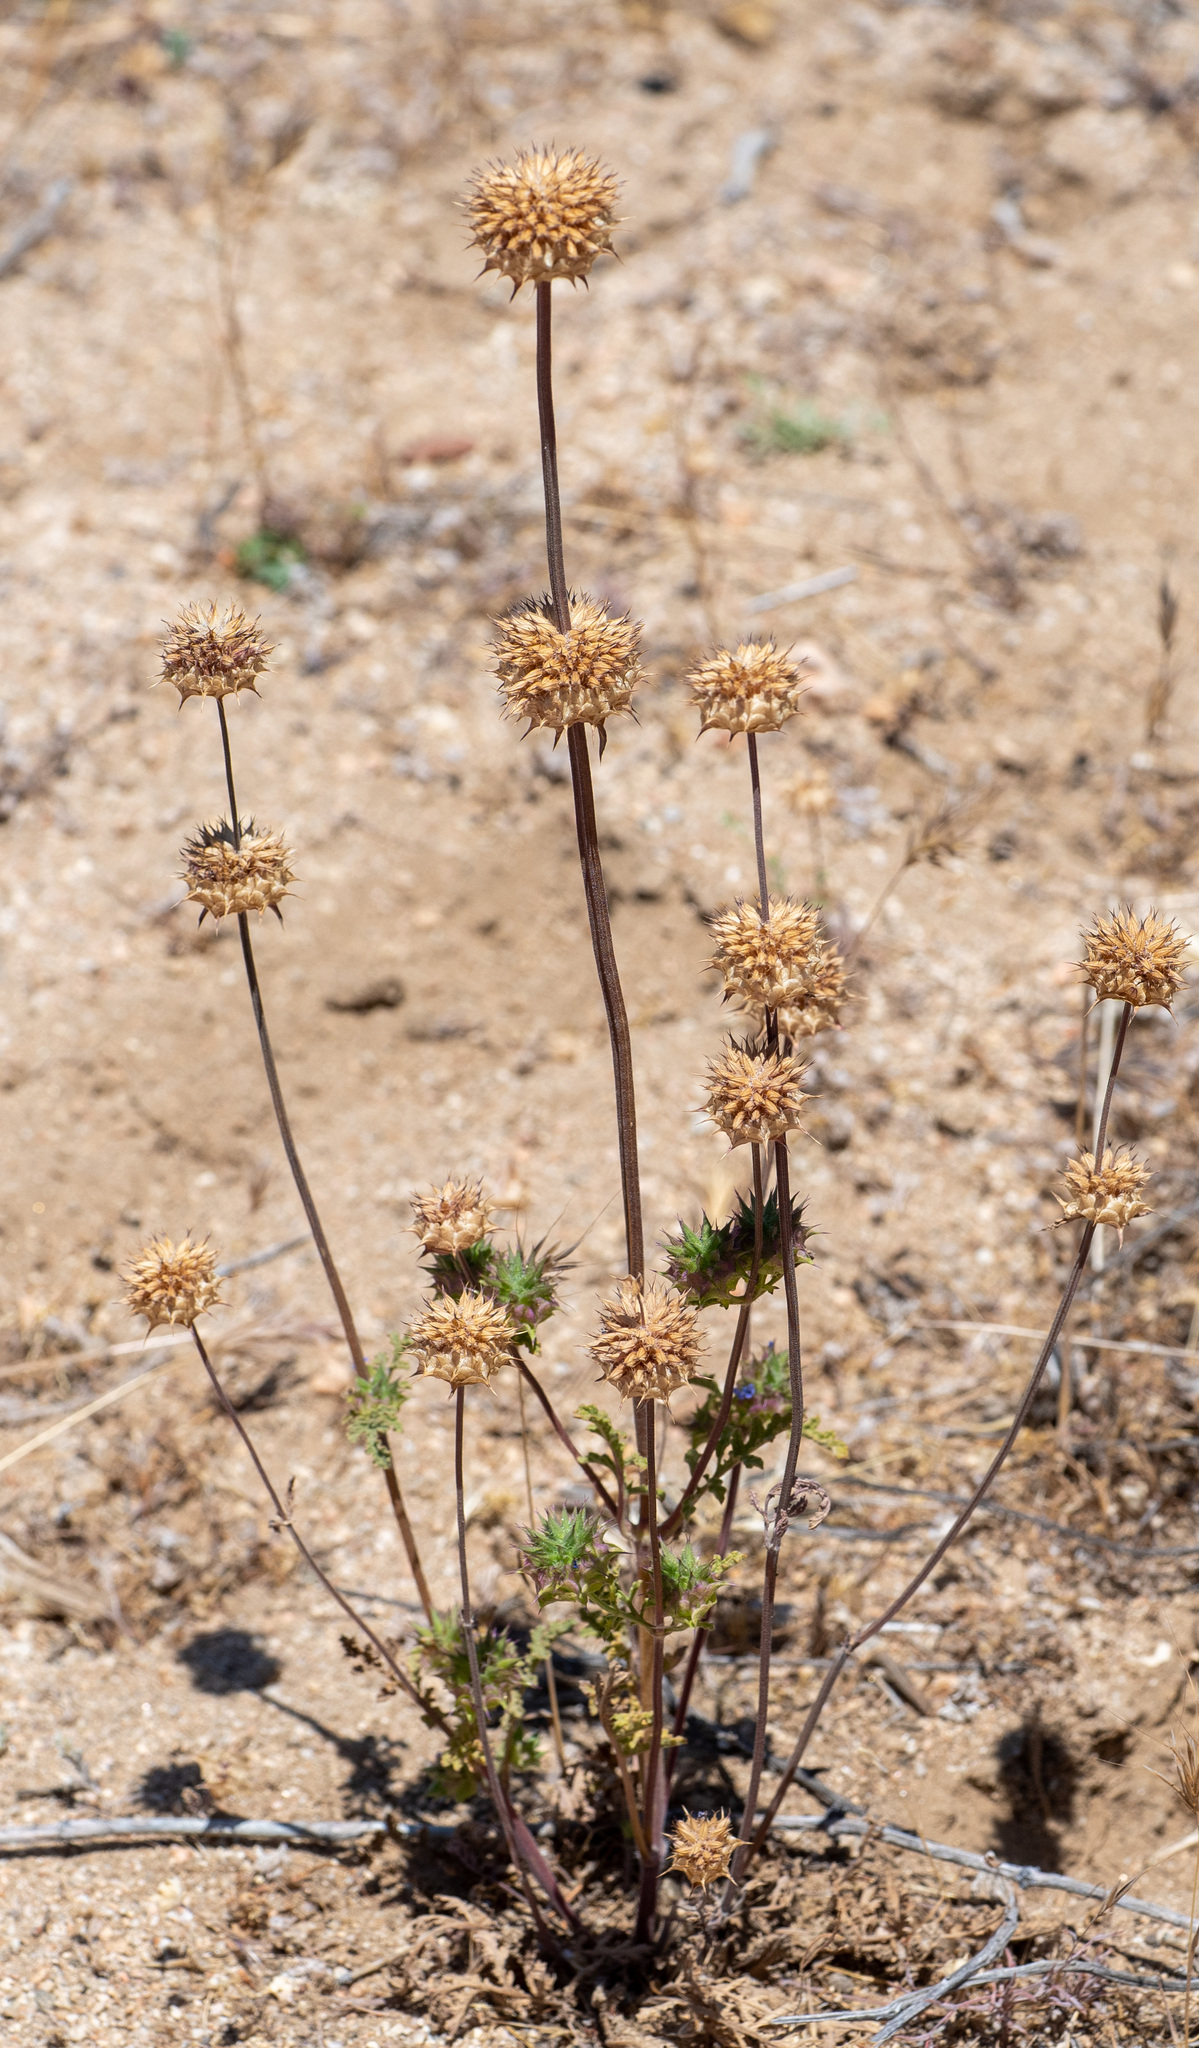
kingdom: Plantae
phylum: Tracheophyta
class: Magnoliopsida
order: Lamiales
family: Lamiaceae
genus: Salvia
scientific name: Salvia columbariae
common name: Chia
